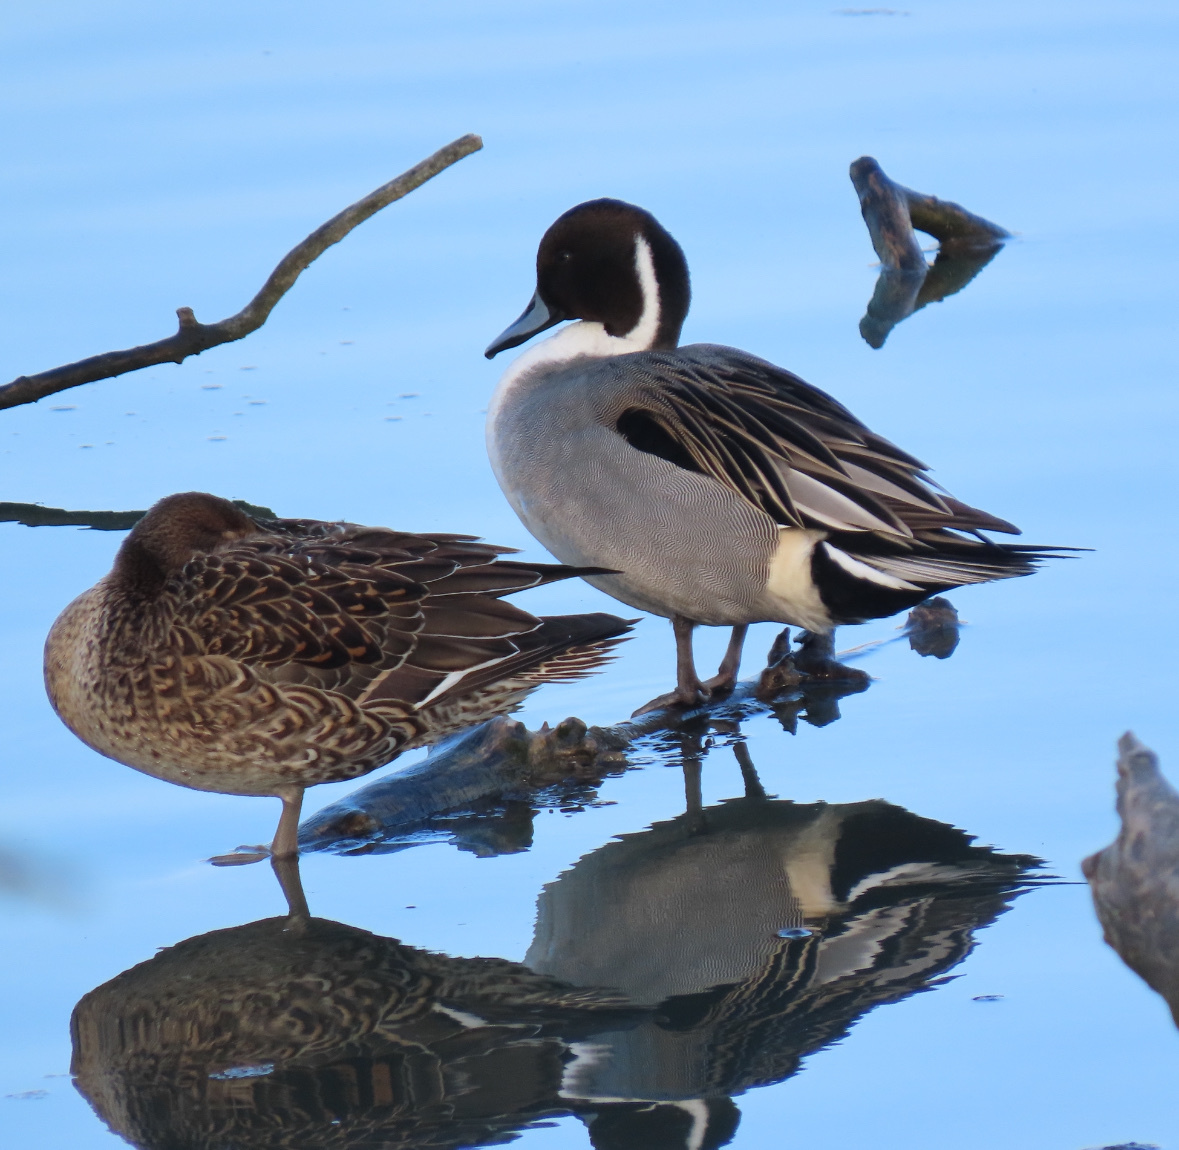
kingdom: Animalia
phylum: Chordata
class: Aves
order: Anseriformes
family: Anatidae
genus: Anas
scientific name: Anas acuta
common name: Northern pintail
